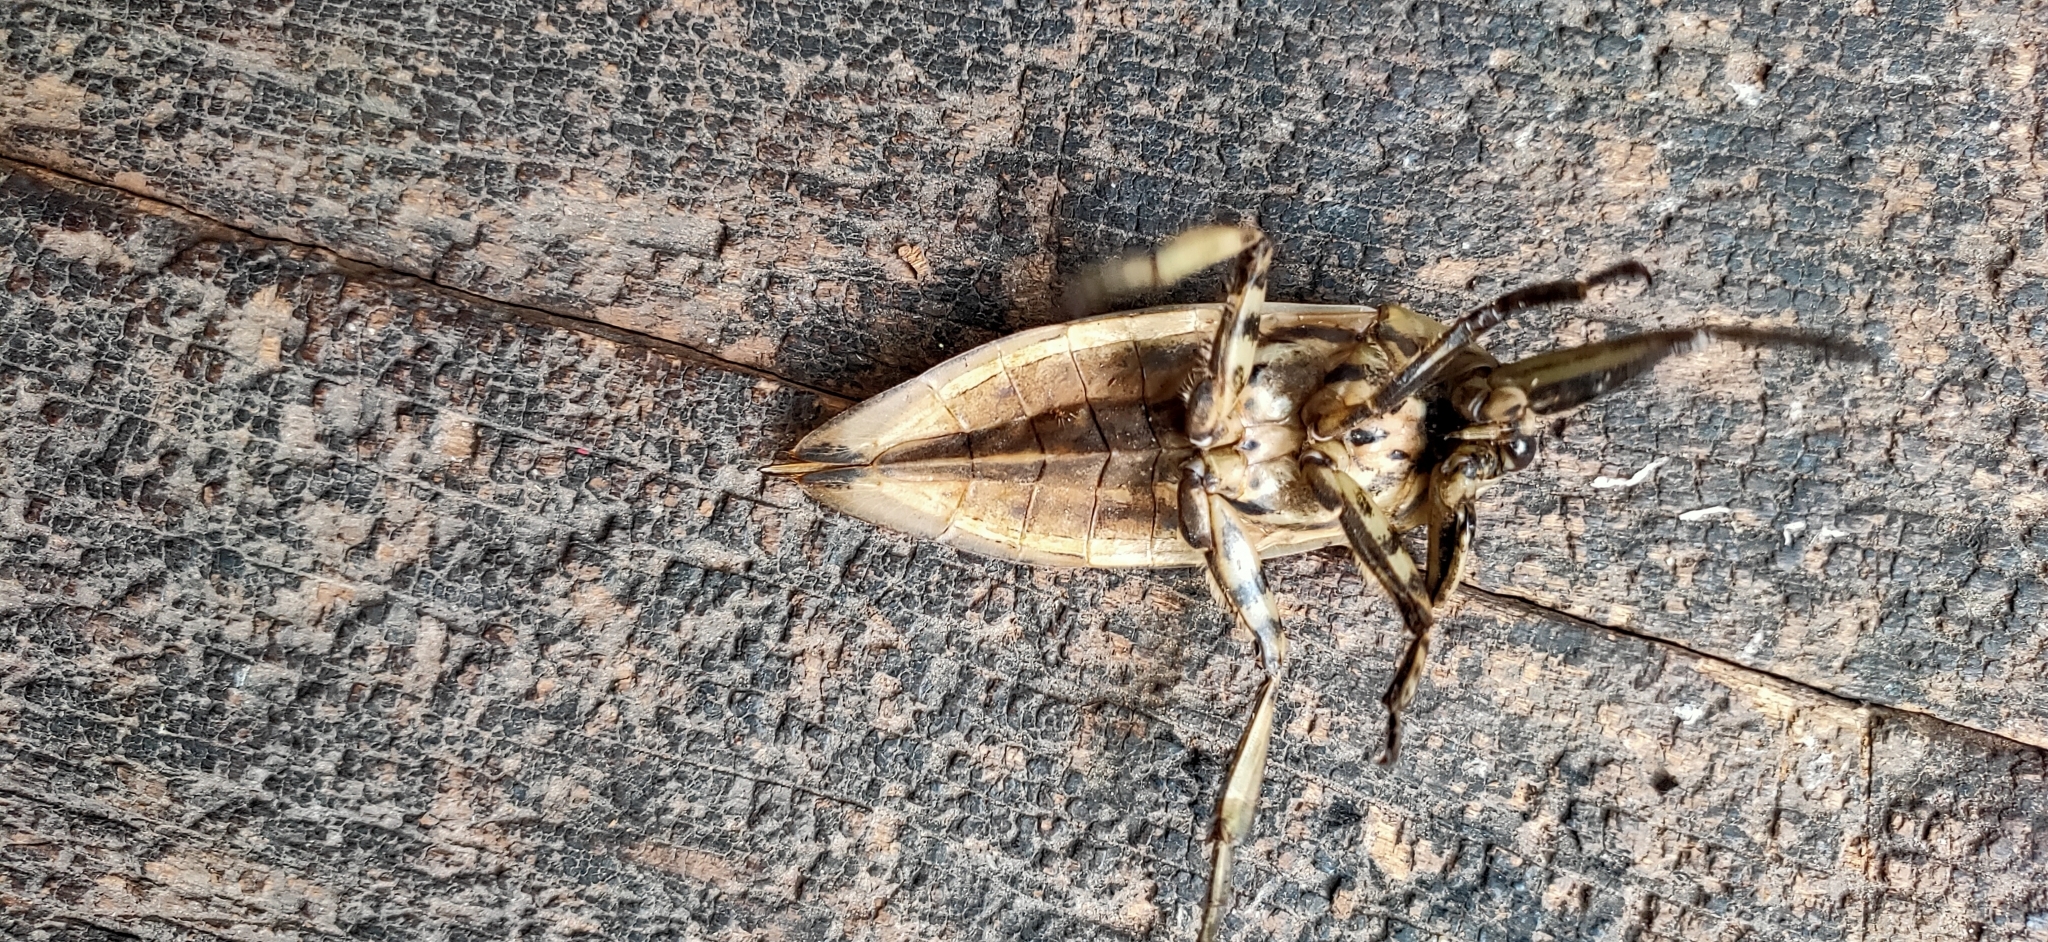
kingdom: Animalia
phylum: Arthropoda
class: Insecta
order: Hemiptera
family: Belostomatidae
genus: Lethocerus
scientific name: Lethocerus indicus
